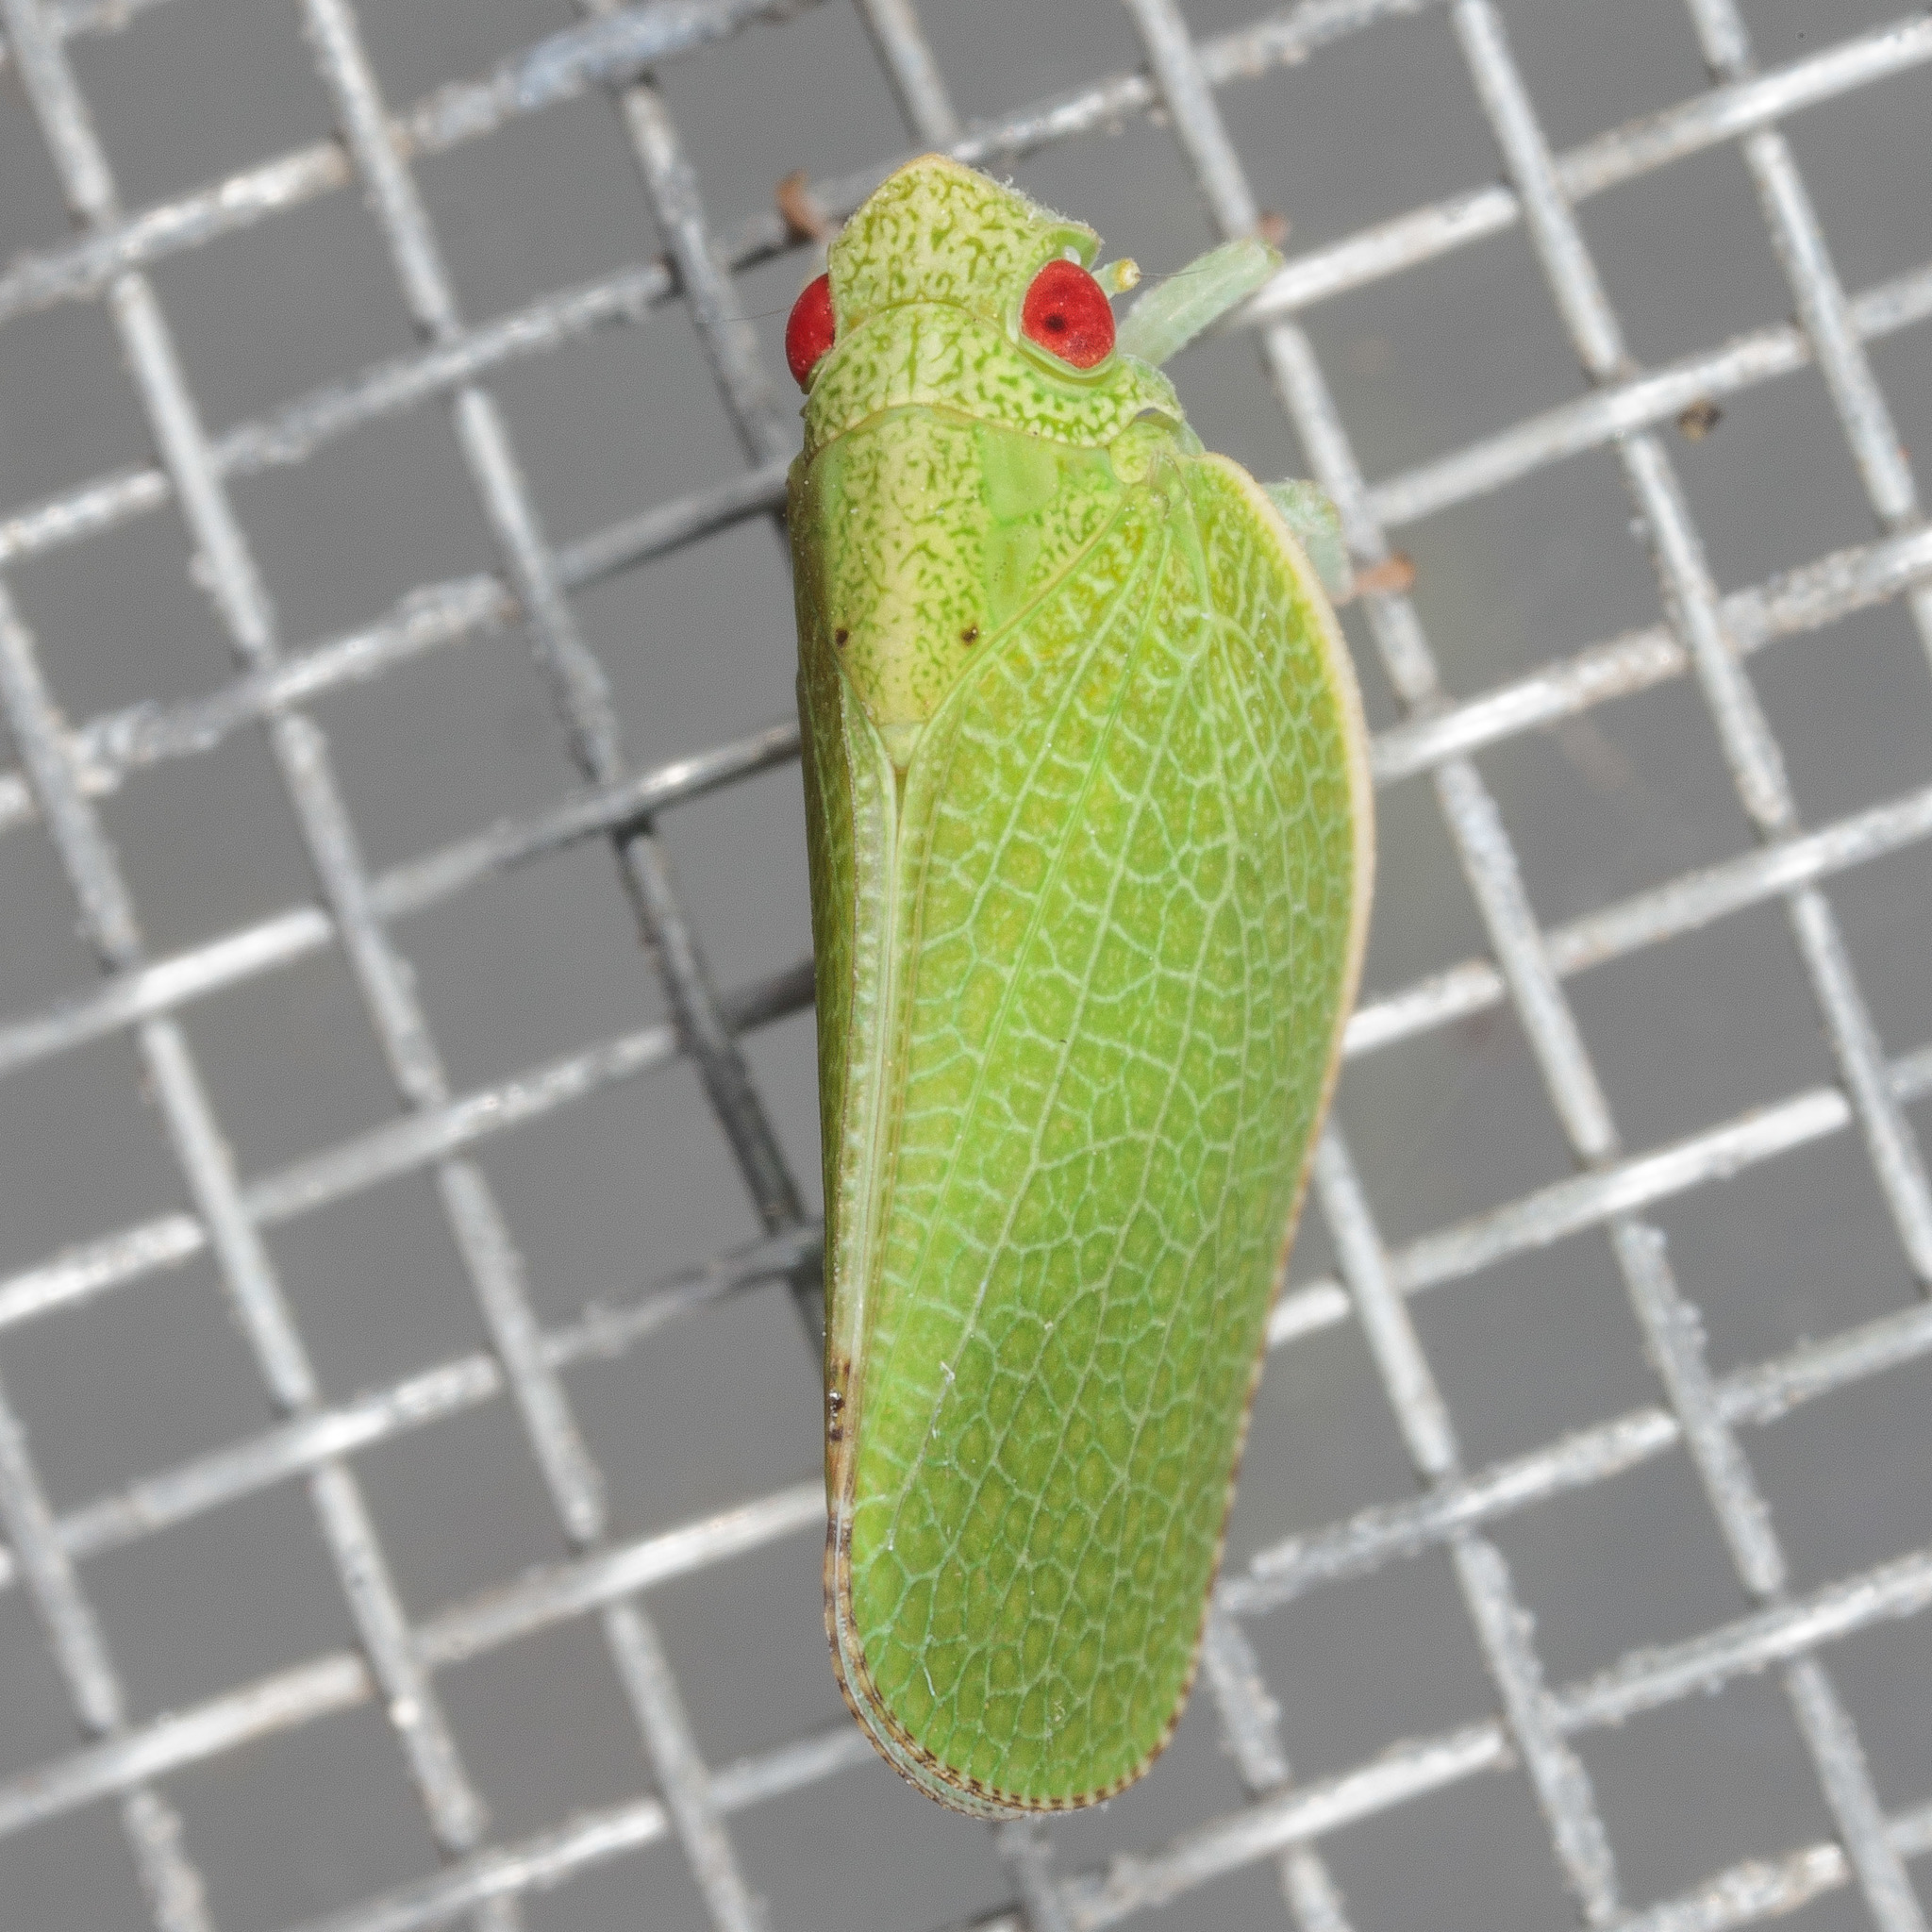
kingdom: Animalia
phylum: Arthropoda
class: Insecta
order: Hemiptera
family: Acanaloniidae
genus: Acanalonia
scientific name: Acanalonia conica
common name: Green cone-headed planthopper
